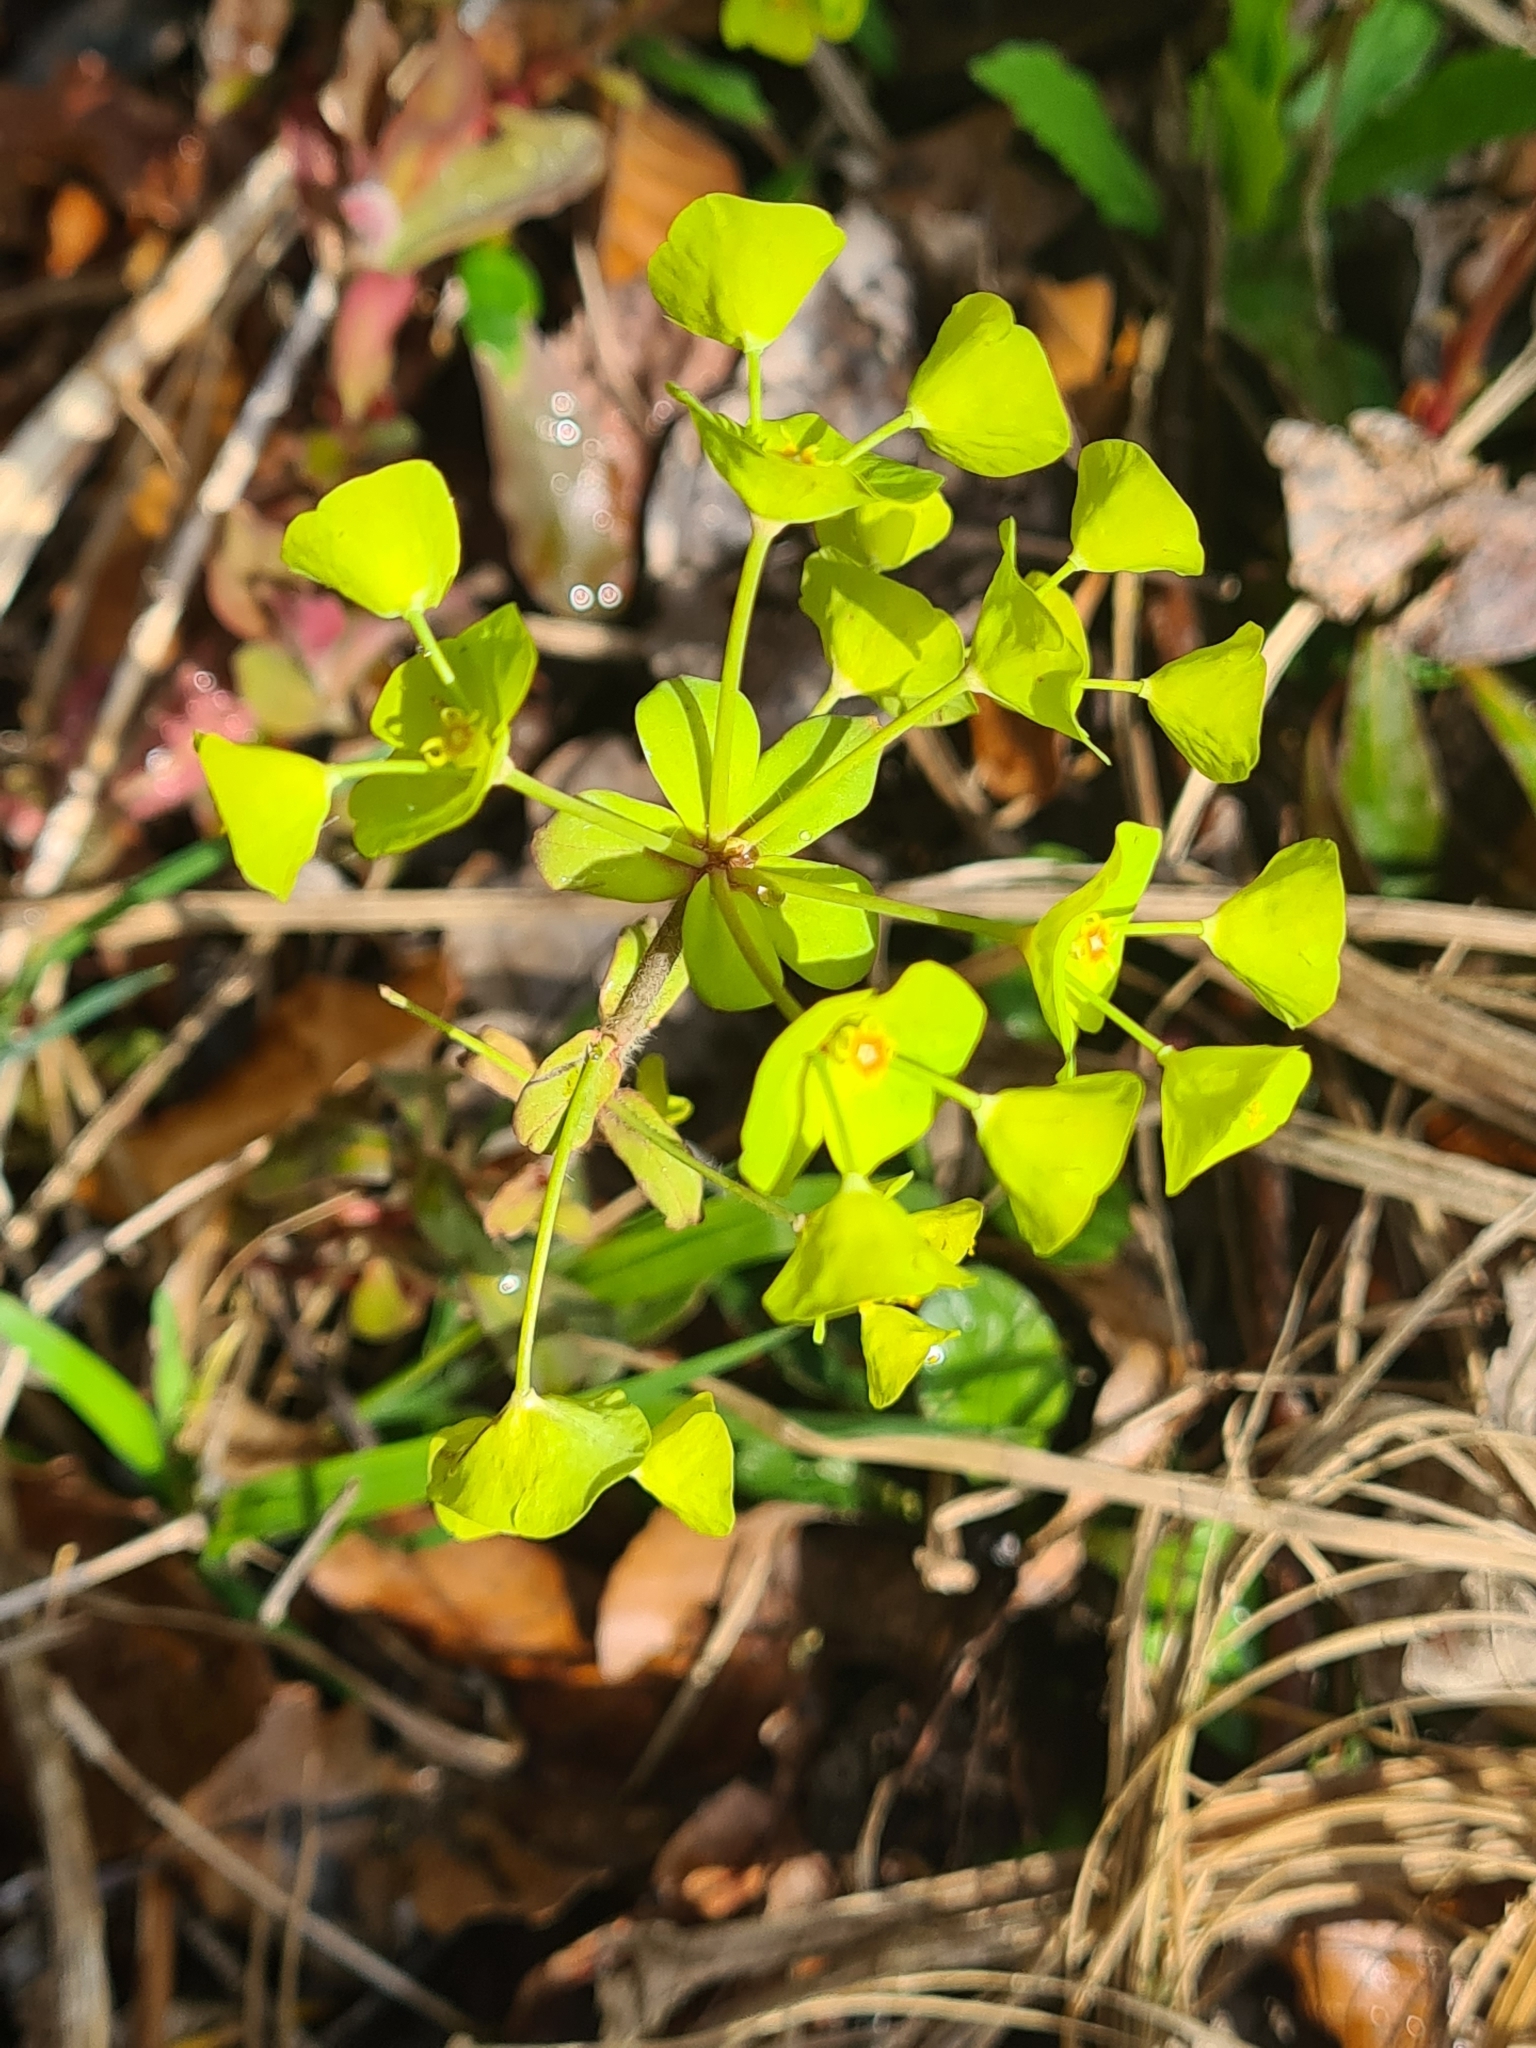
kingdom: Plantae
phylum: Tracheophyta
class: Magnoliopsida
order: Malpighiales
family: Euphorbiaceae
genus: Euphorbia
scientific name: Euphorbia amygdaloides
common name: Wood spurge
